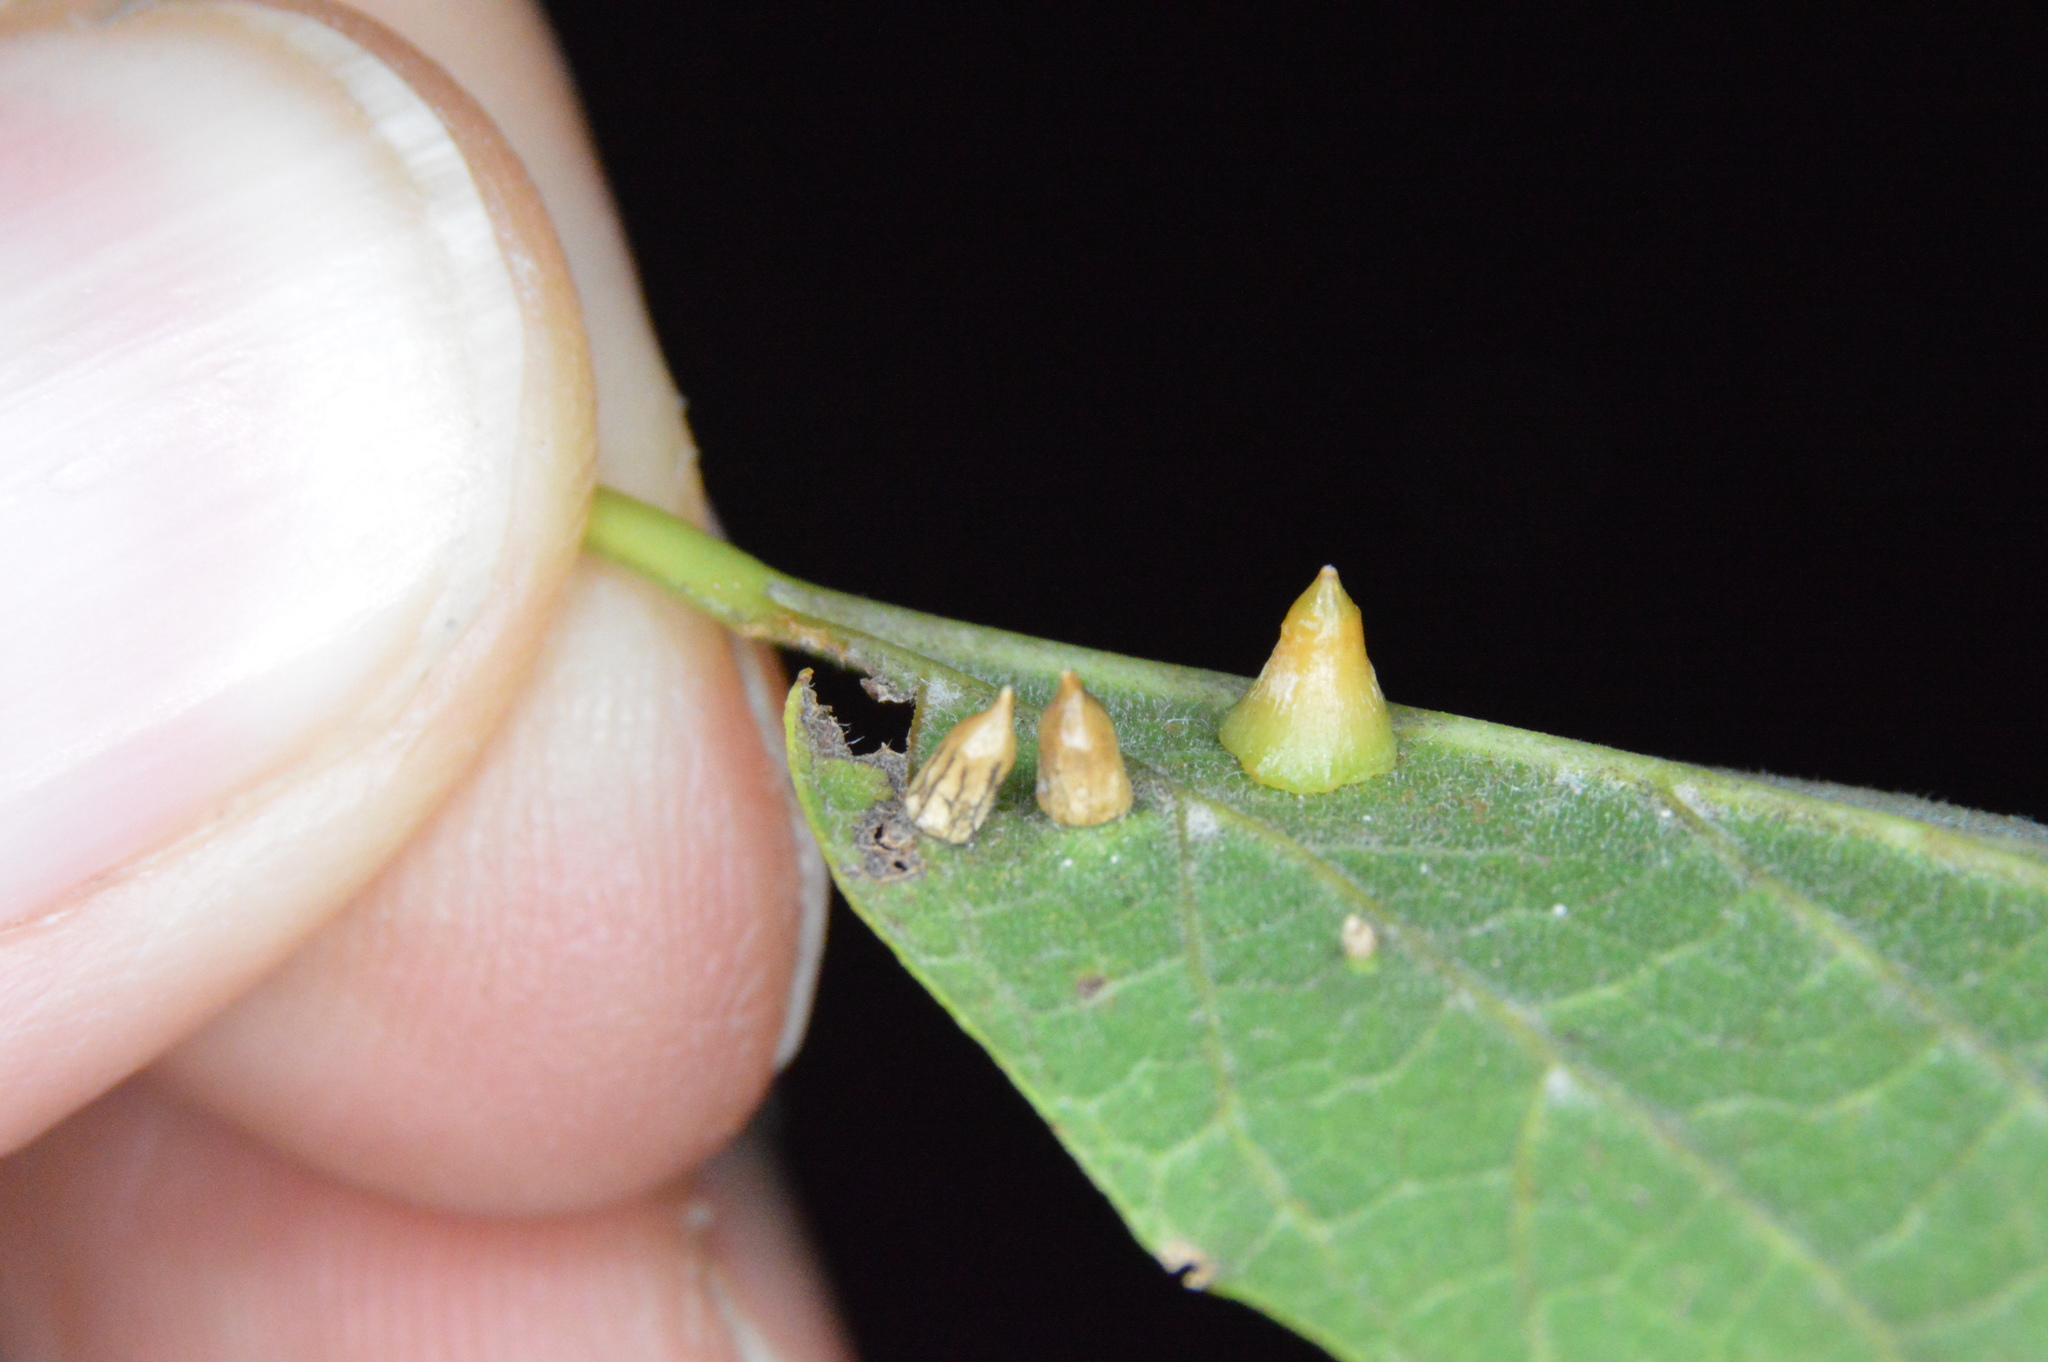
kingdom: Animalia
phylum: Arthropoda
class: Insecta
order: Diptera
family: Cecidomyiidae
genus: Celticecis
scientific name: Celticecis spiniformis
